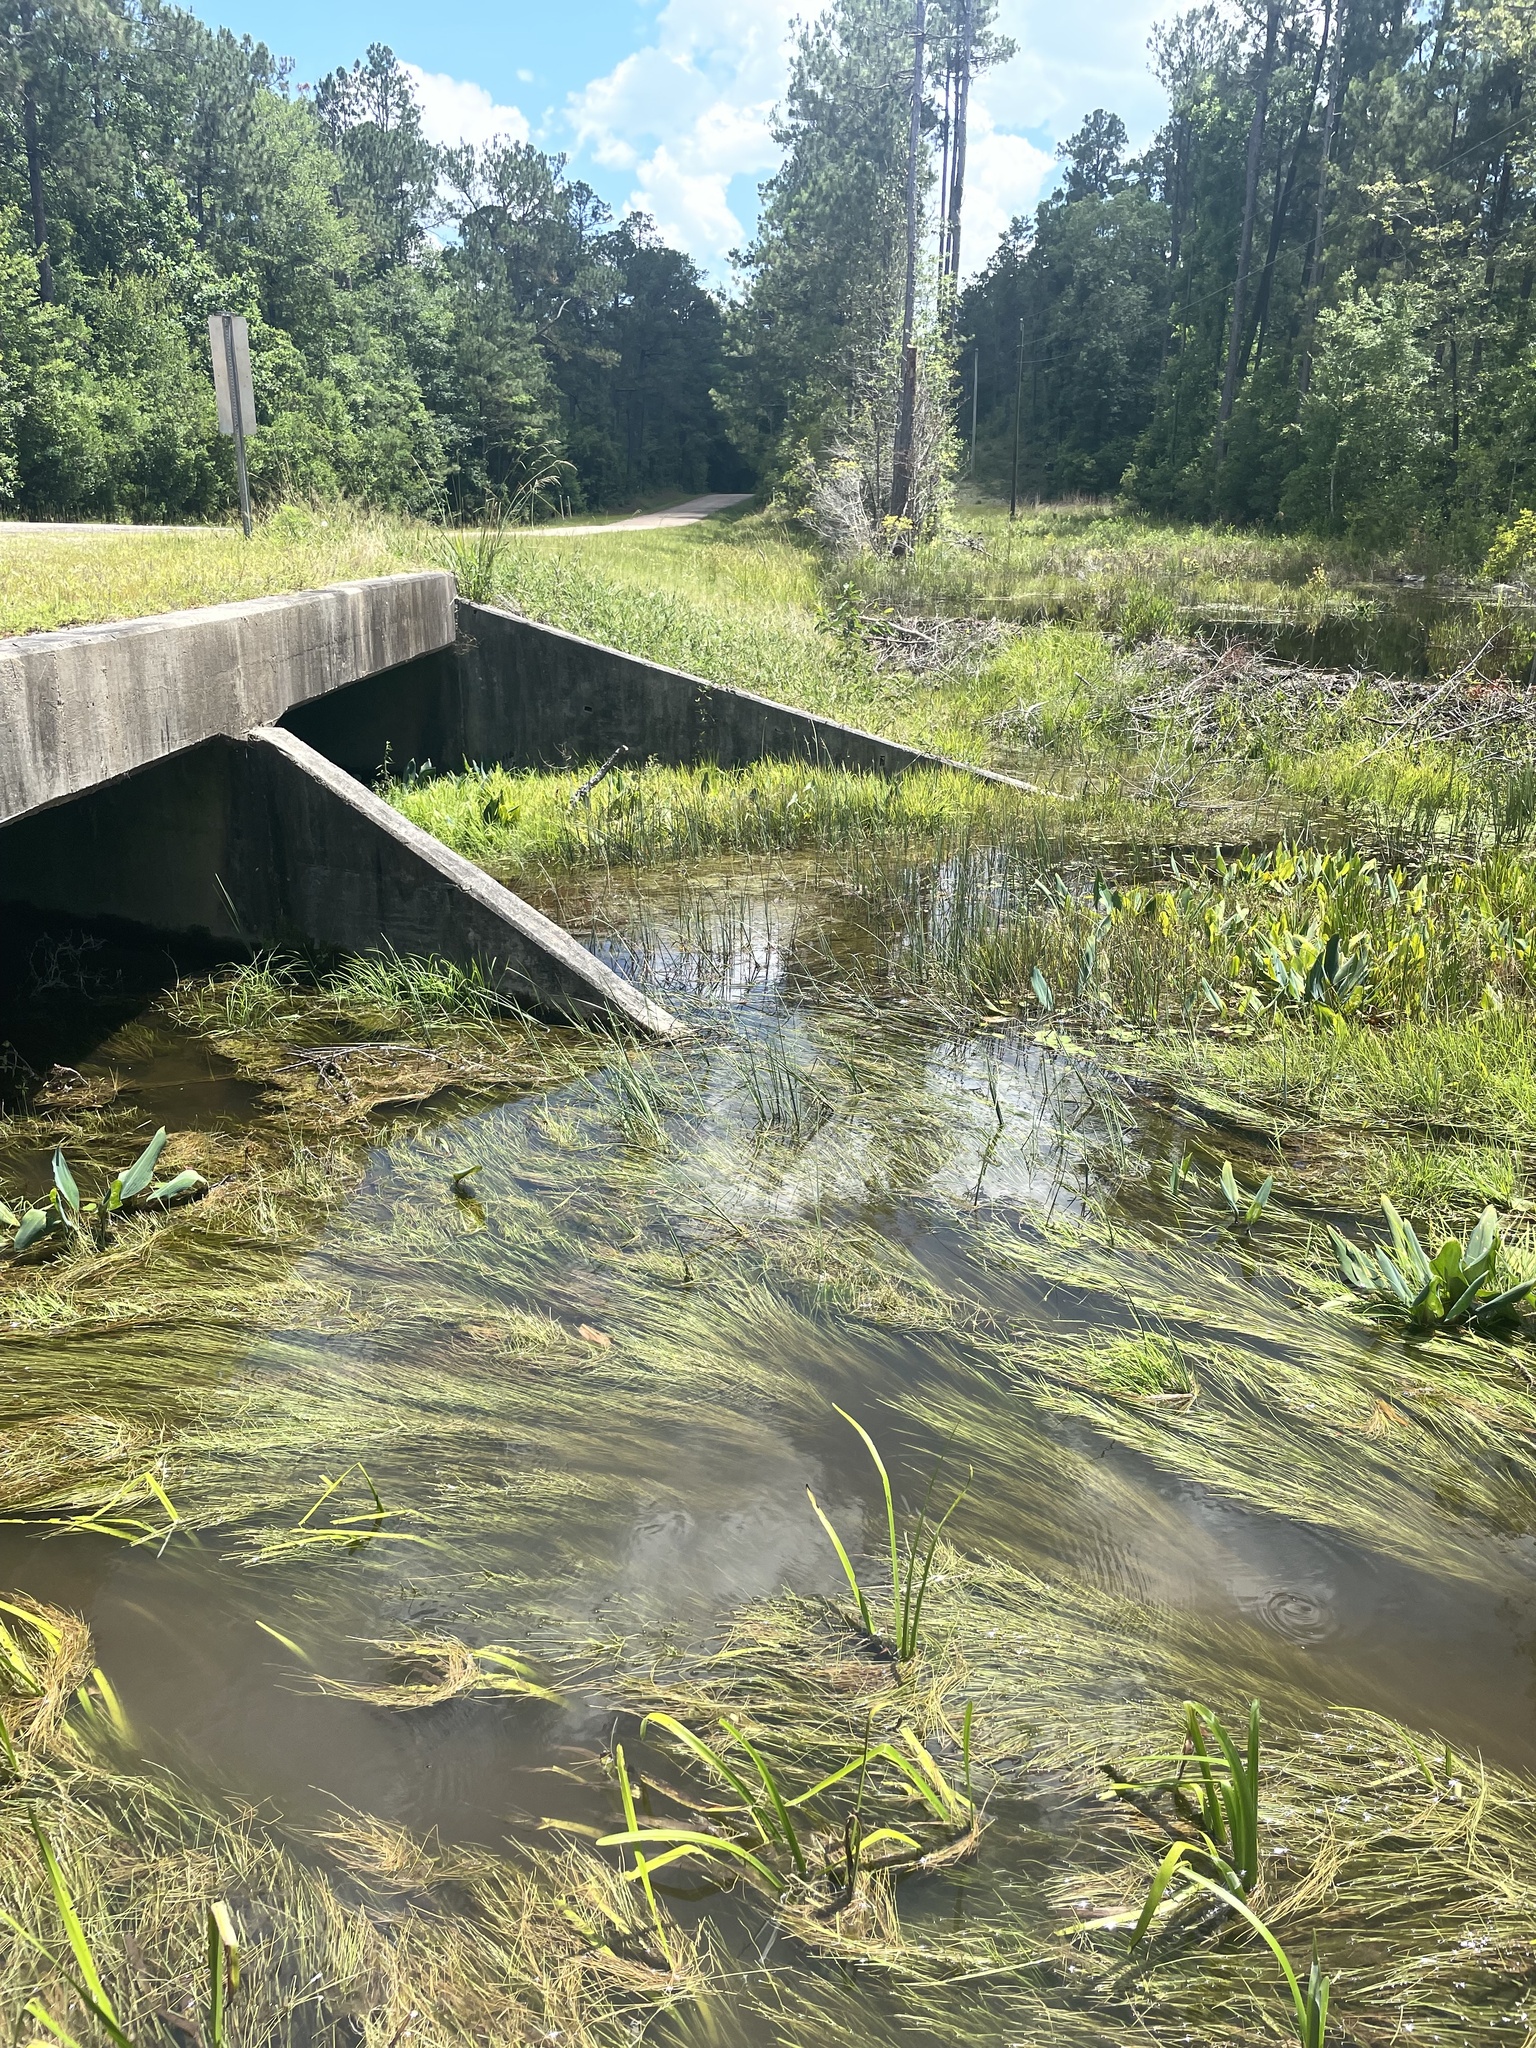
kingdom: Plantae
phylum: Tracheophyta
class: Liliopsida
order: Poales
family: Cyperaceae
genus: Schoenoplectus
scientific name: Schoenoplectus etuberculatus
